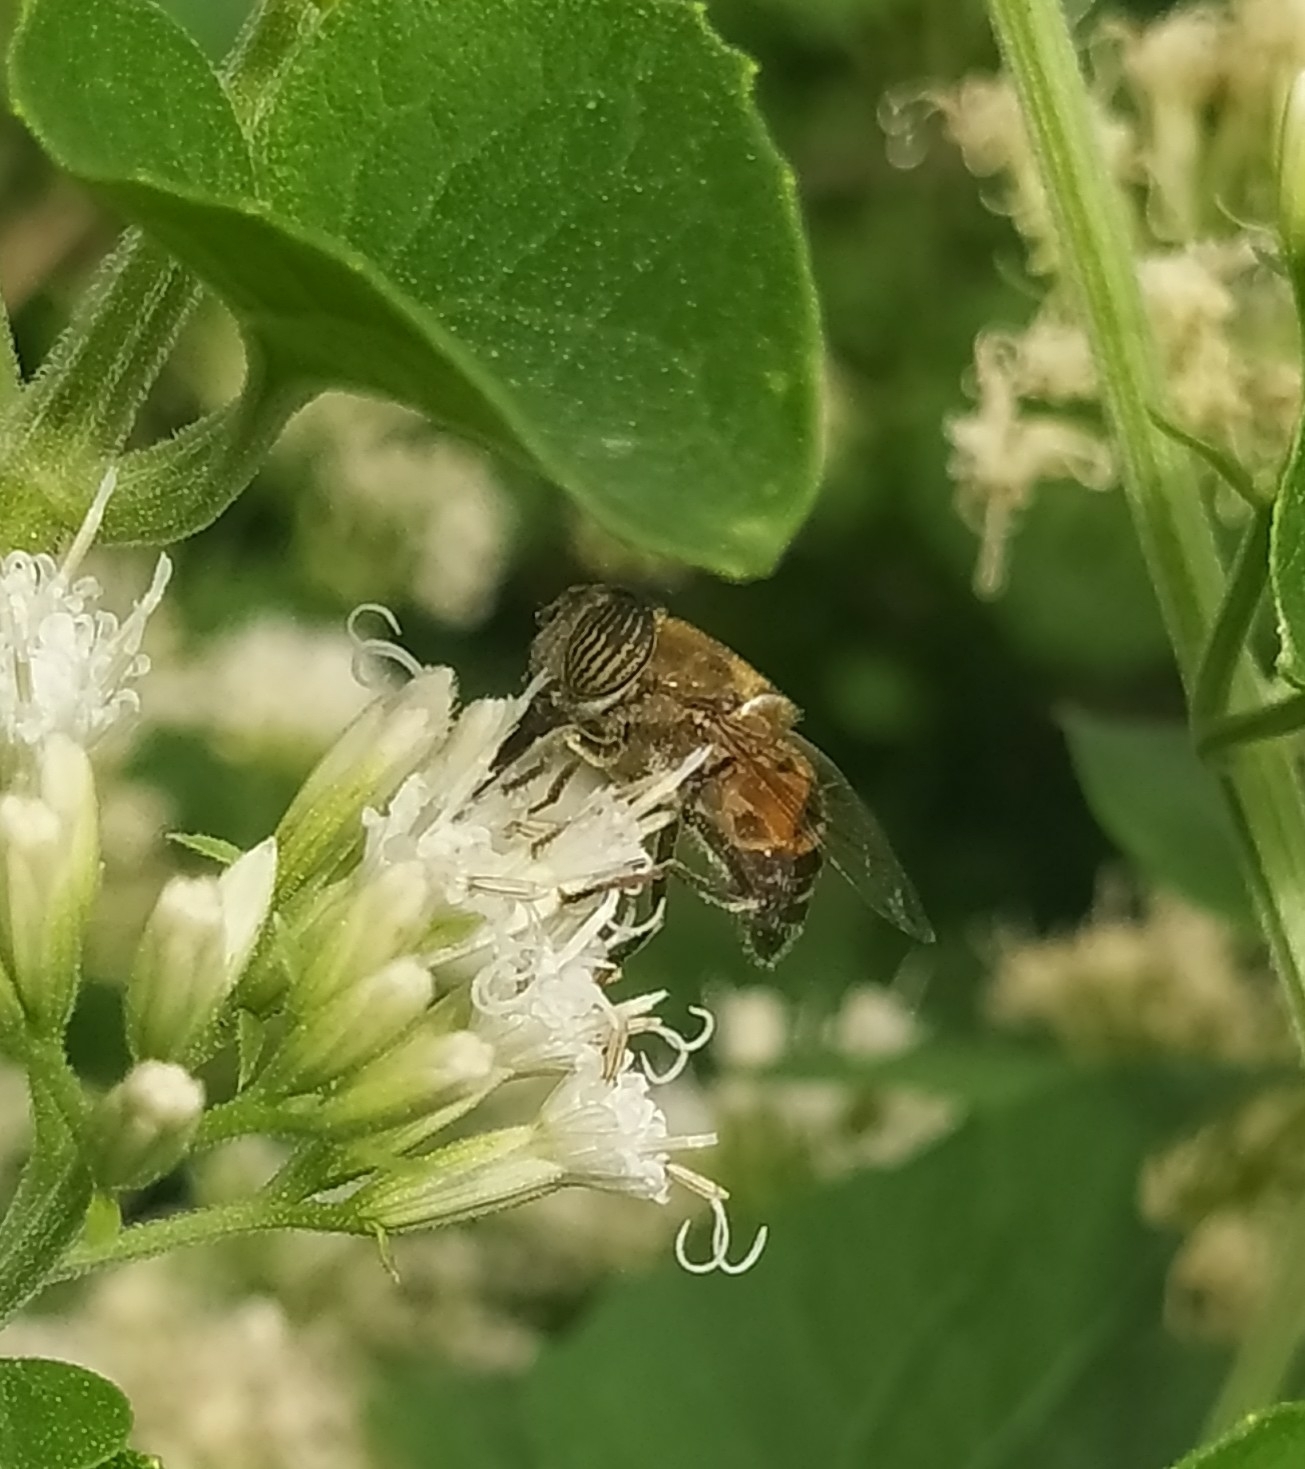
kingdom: Animalia
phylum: Arthropoda
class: Insecta
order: Diptera
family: Syrphidae
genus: Eristalinus
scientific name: Eristalinus taeniops
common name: Syrphid fly
